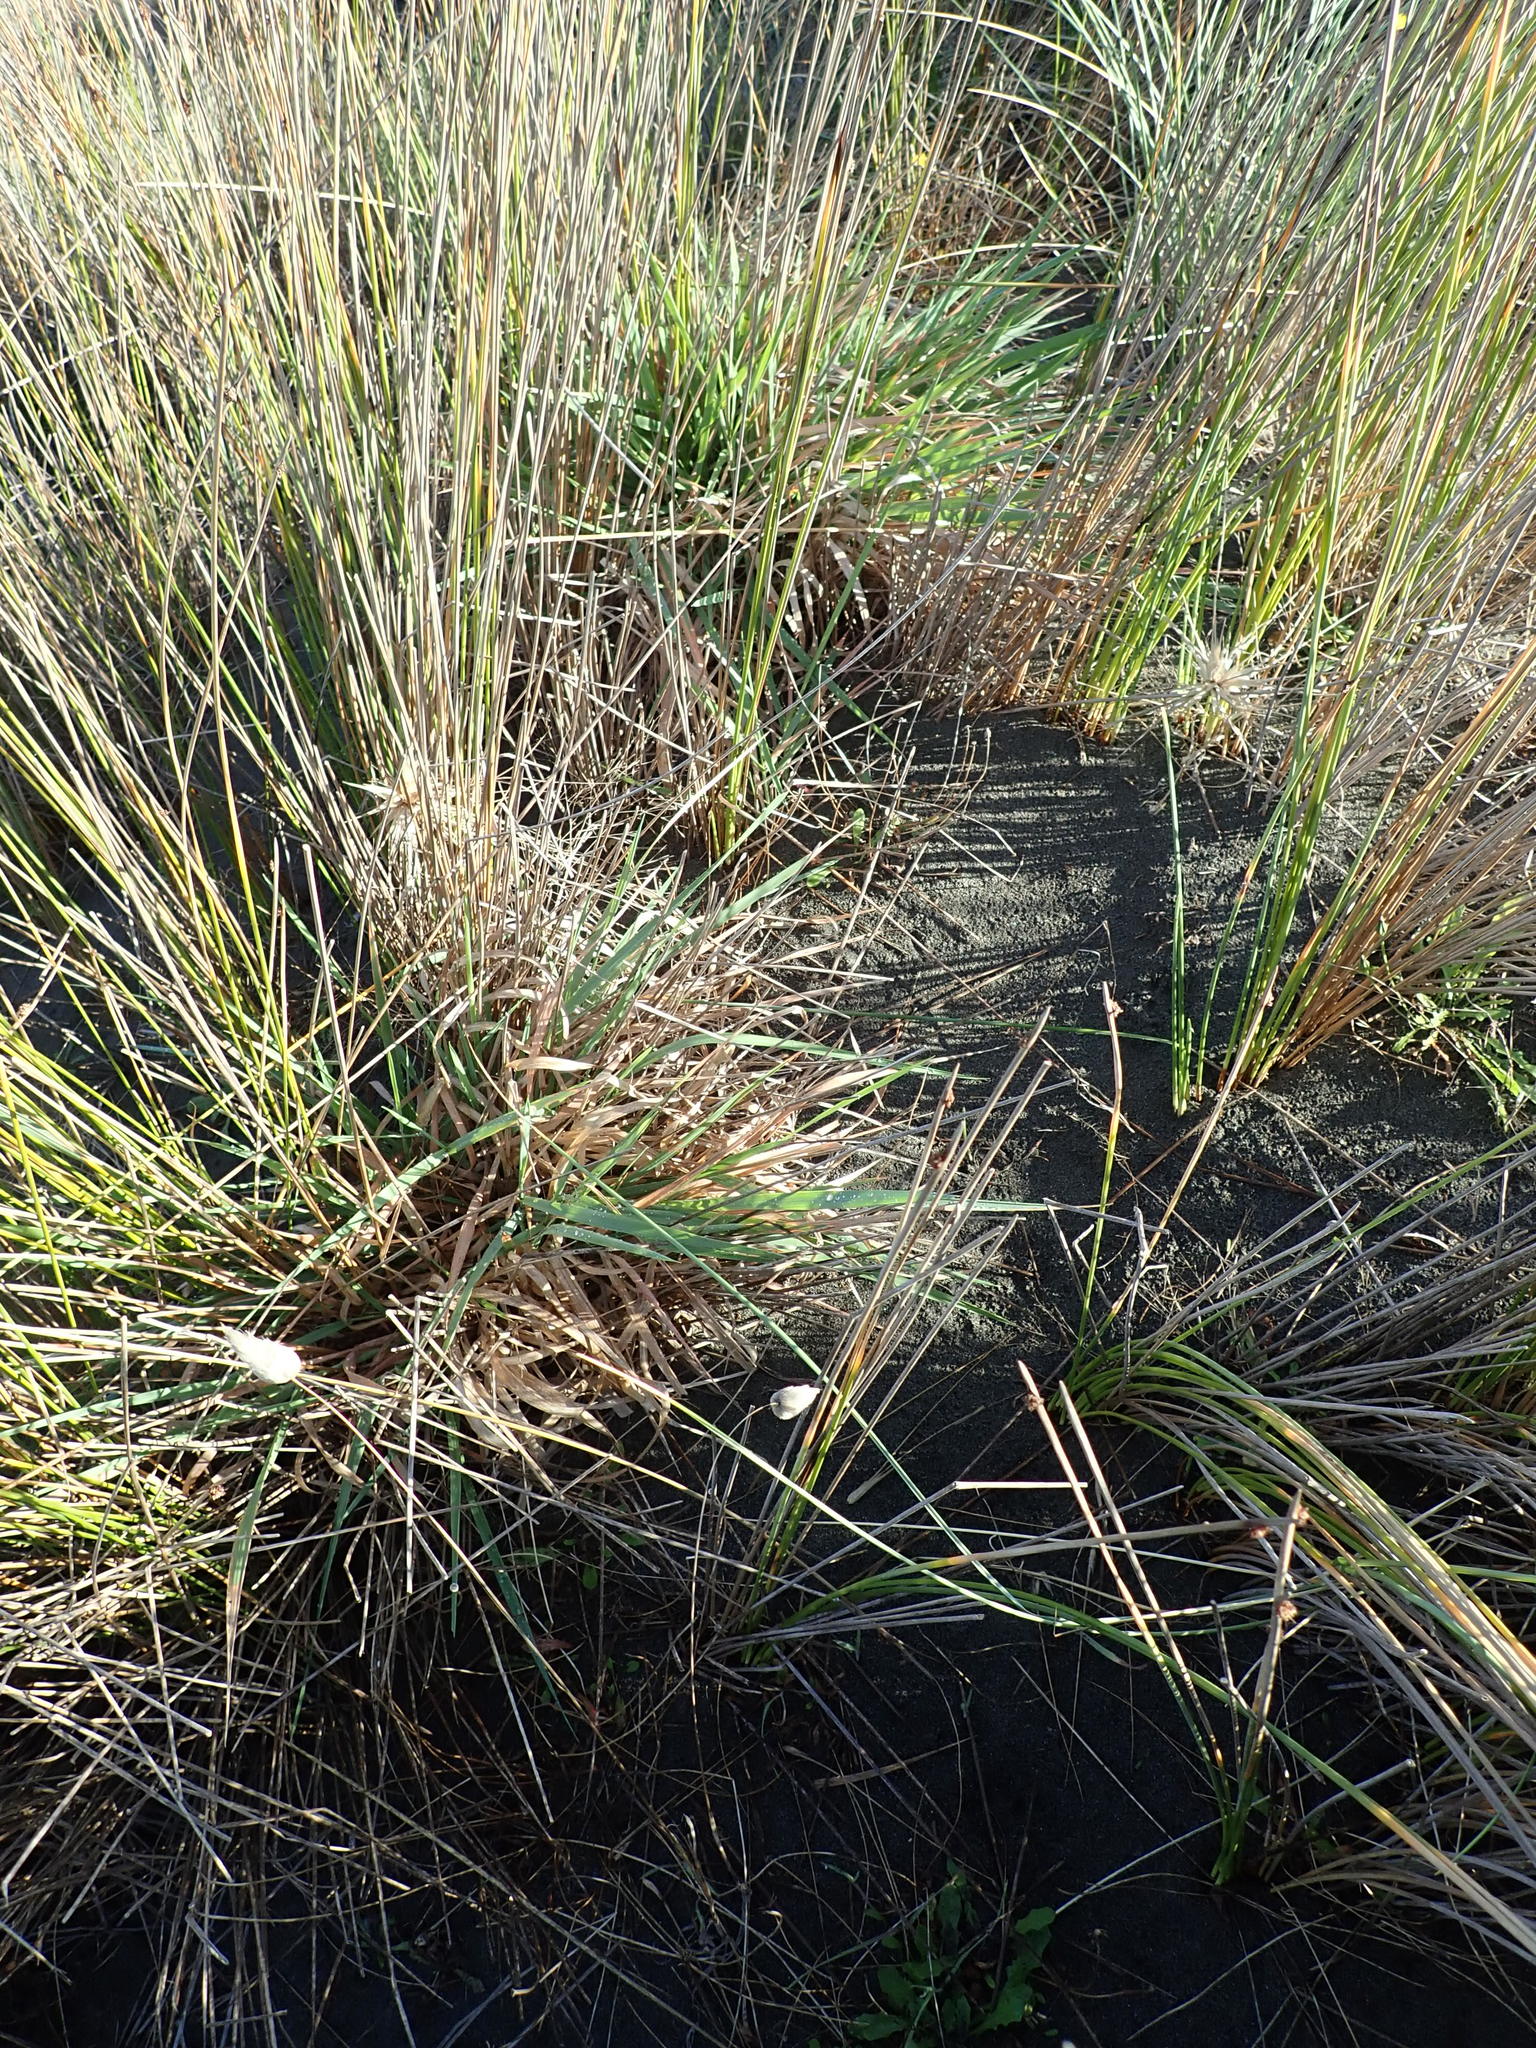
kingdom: Plantae
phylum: Tracheophyta
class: Liliopsida
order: Poales
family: Poaceae
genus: Lachnagrostis
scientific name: Lachnagrostis billardierei
